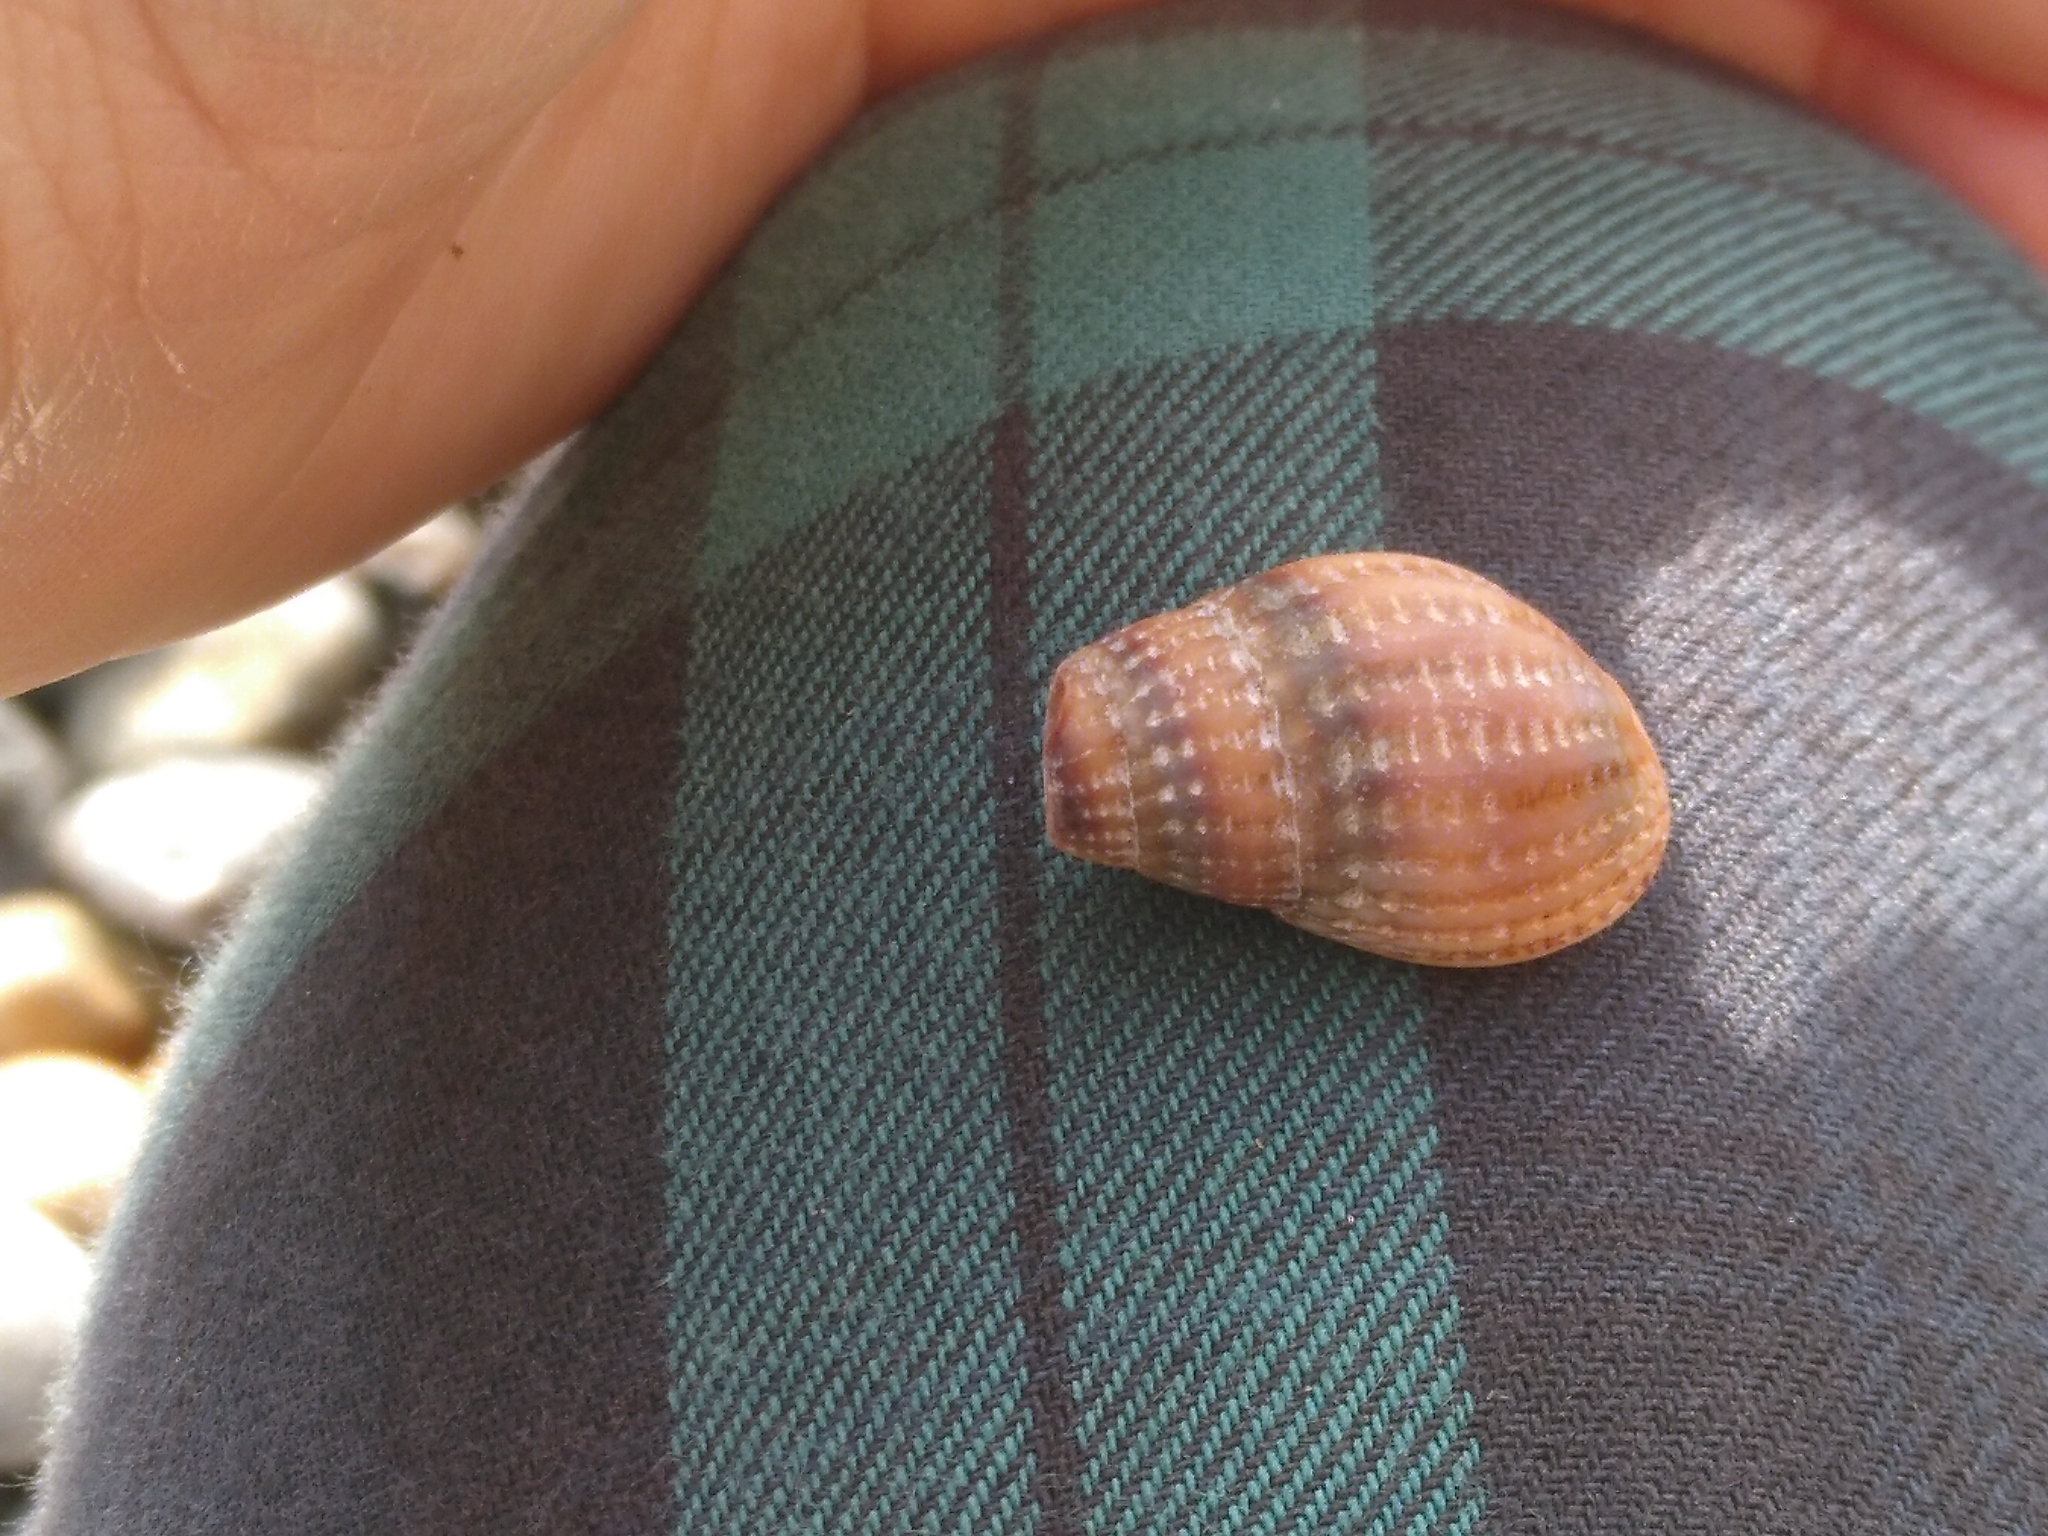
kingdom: Animalia
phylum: Mollusca
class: Gastropoda
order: Neogastropoda
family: Nassariidae
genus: Tritia
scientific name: Tritia reticulata
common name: Netted dog whelk
